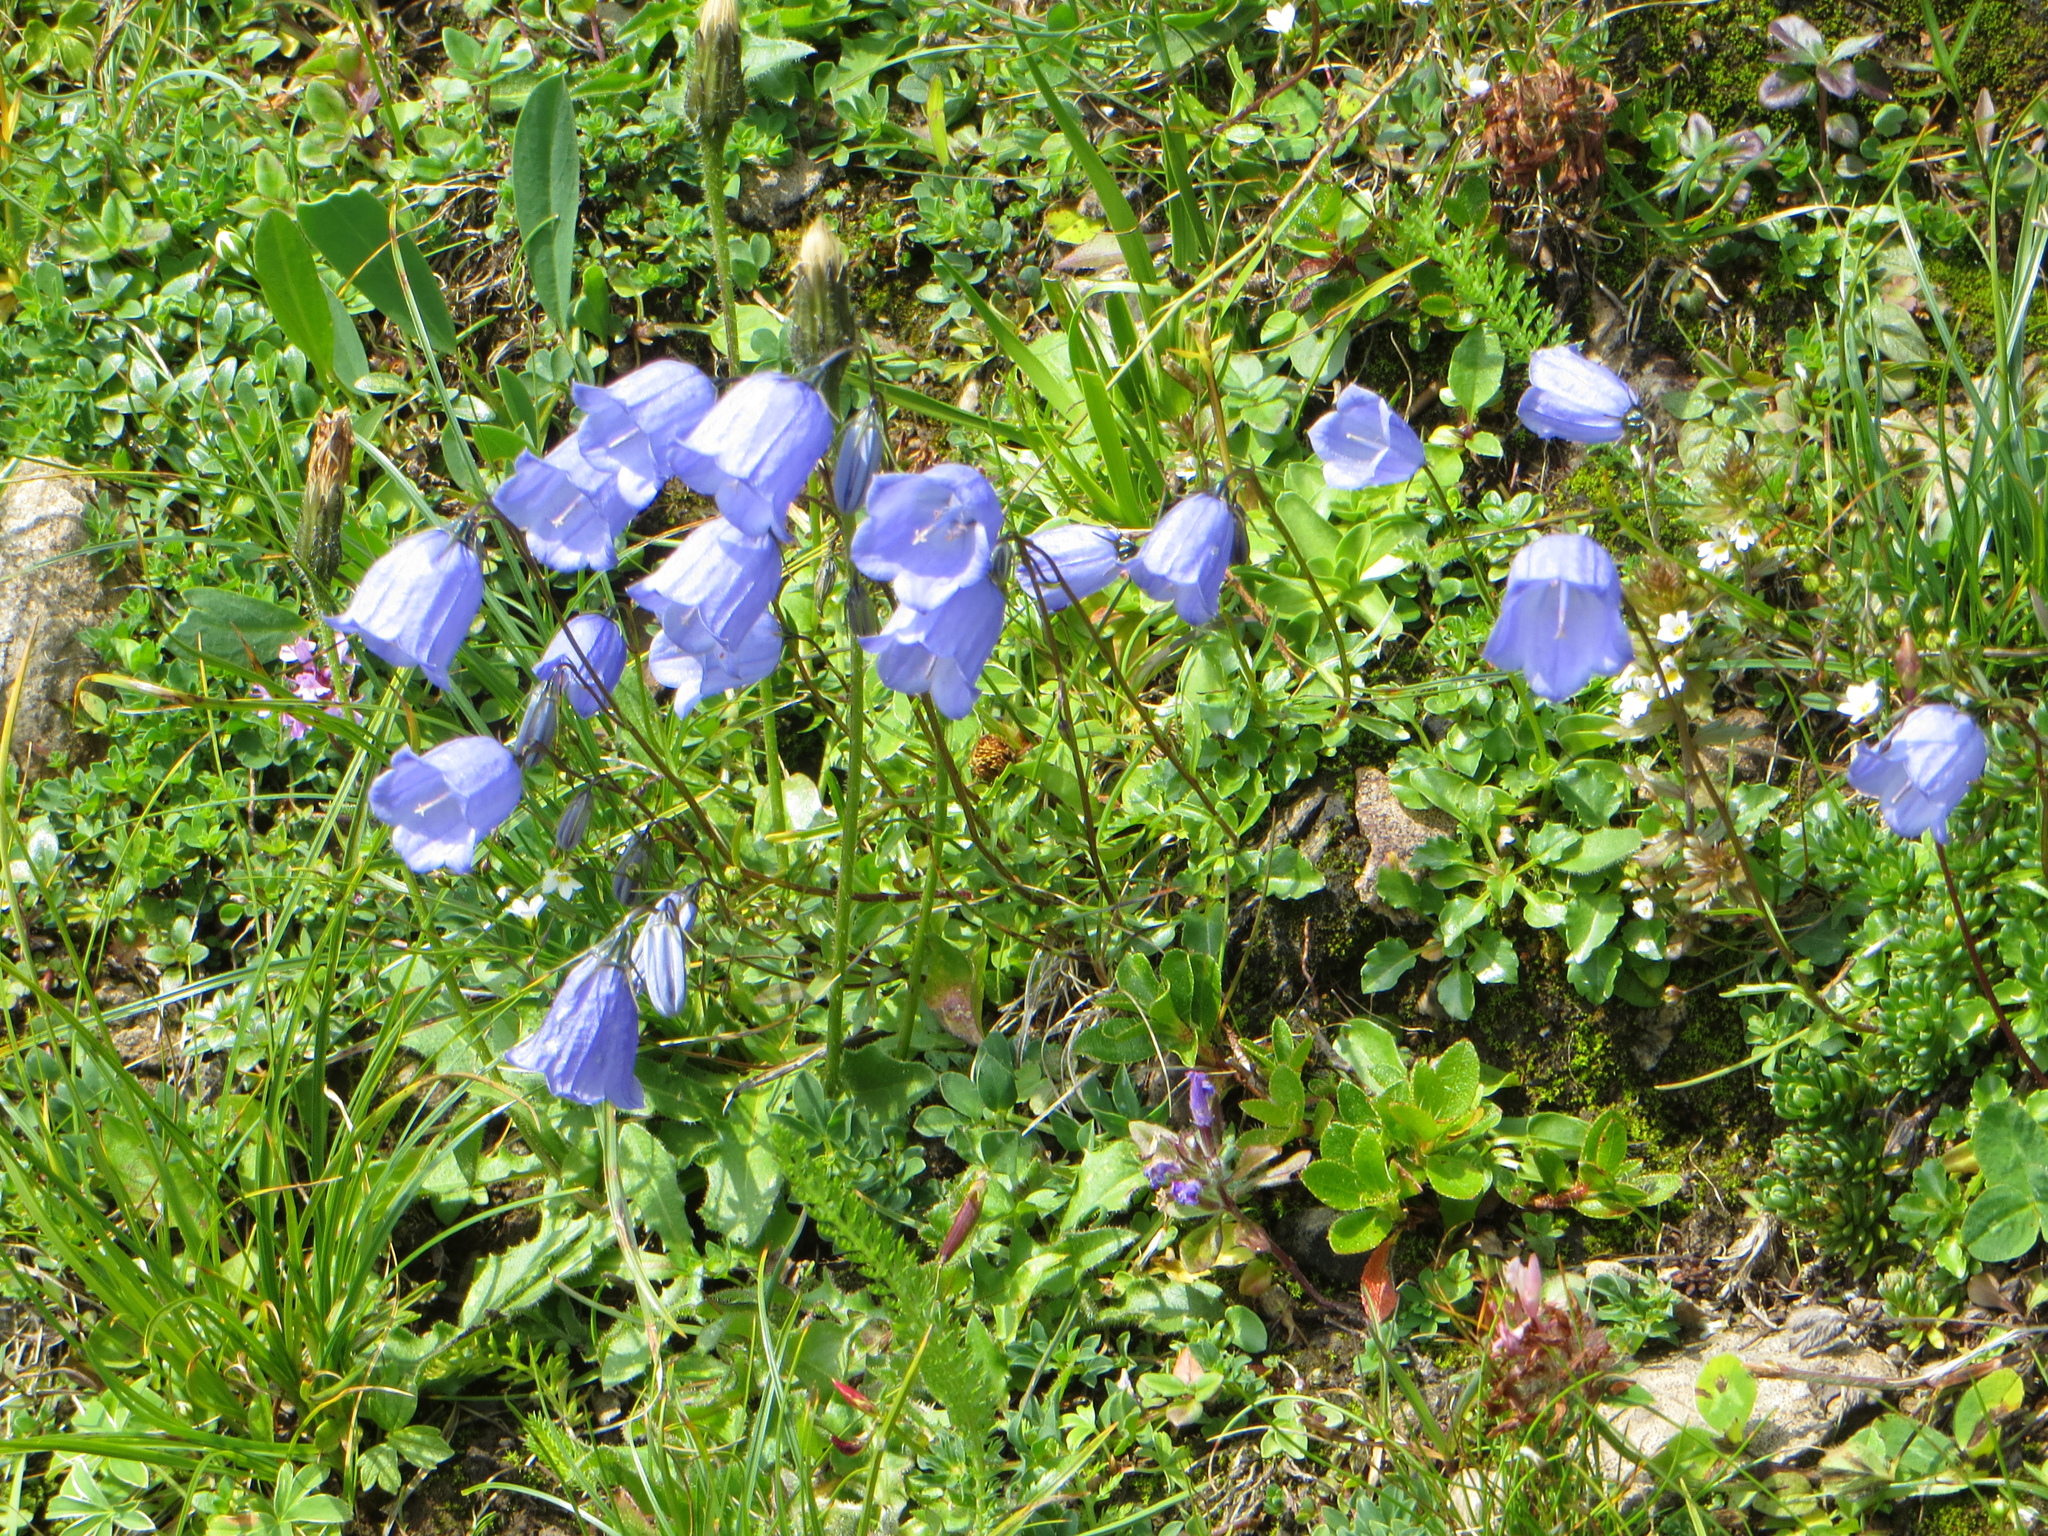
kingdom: Plantae
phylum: Tracheophyta
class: Magnoliopsida
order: Asterales
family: Campanulaceae
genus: Campanula
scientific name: Campanula cochleariifolia
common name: Fairies'-thimbles
